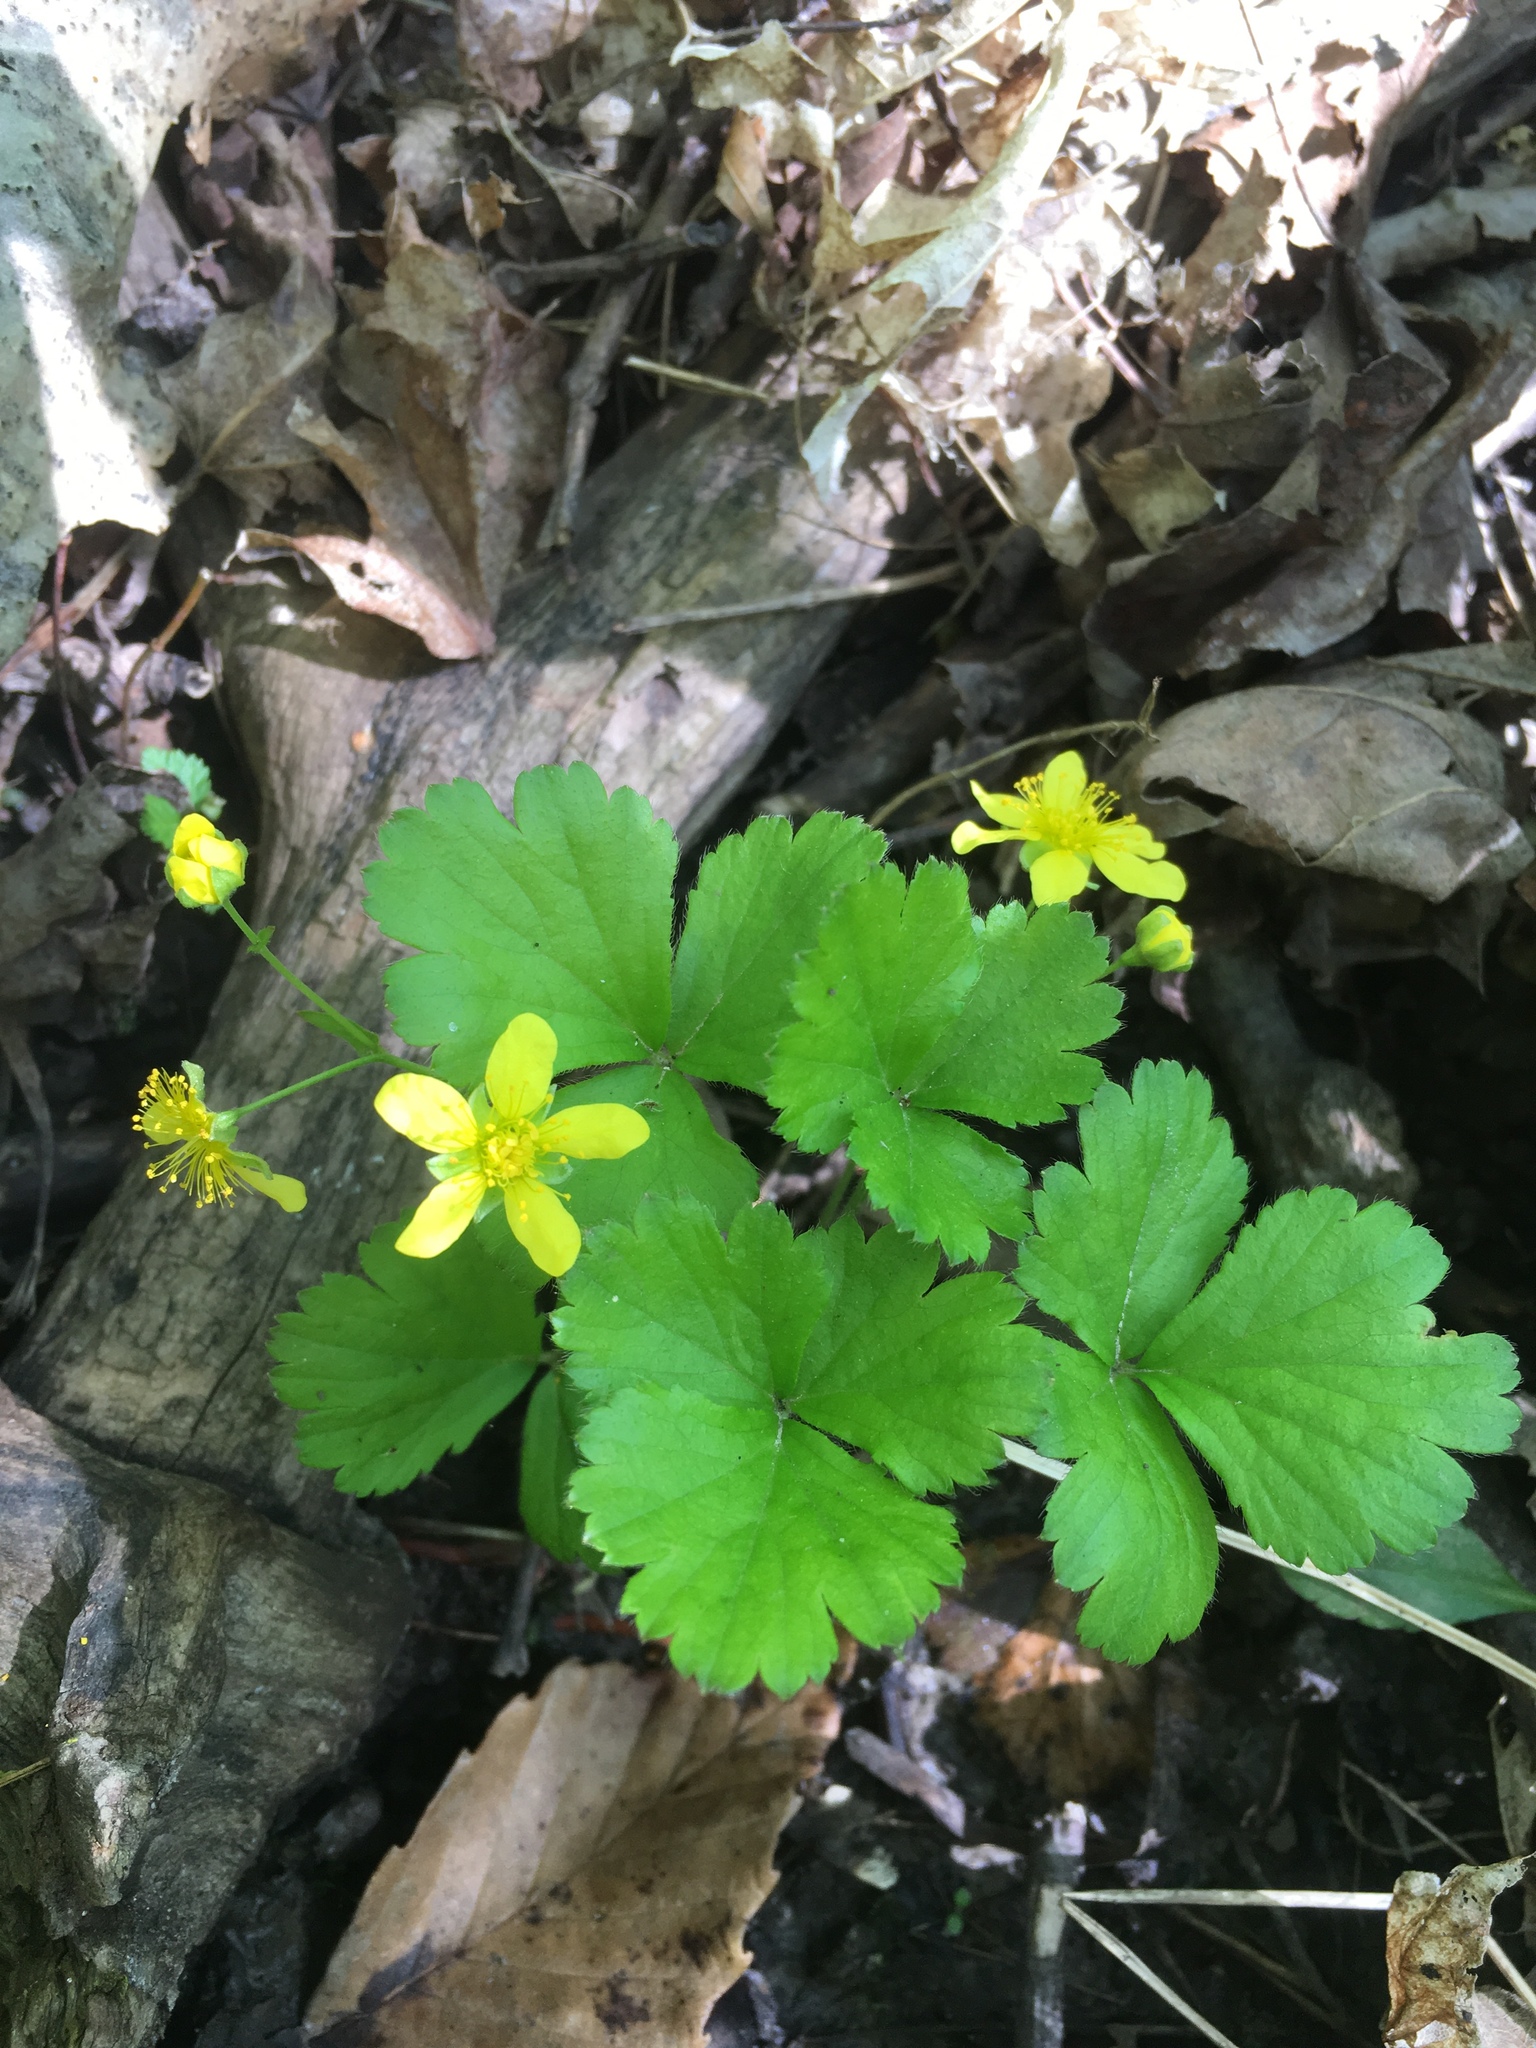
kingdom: Plantae
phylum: Tracheophyta
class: Magnoliopsida
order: Rosales
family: Rosaceae
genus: Geum
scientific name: Geum fragarioides
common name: Appalachian barren strawberry
